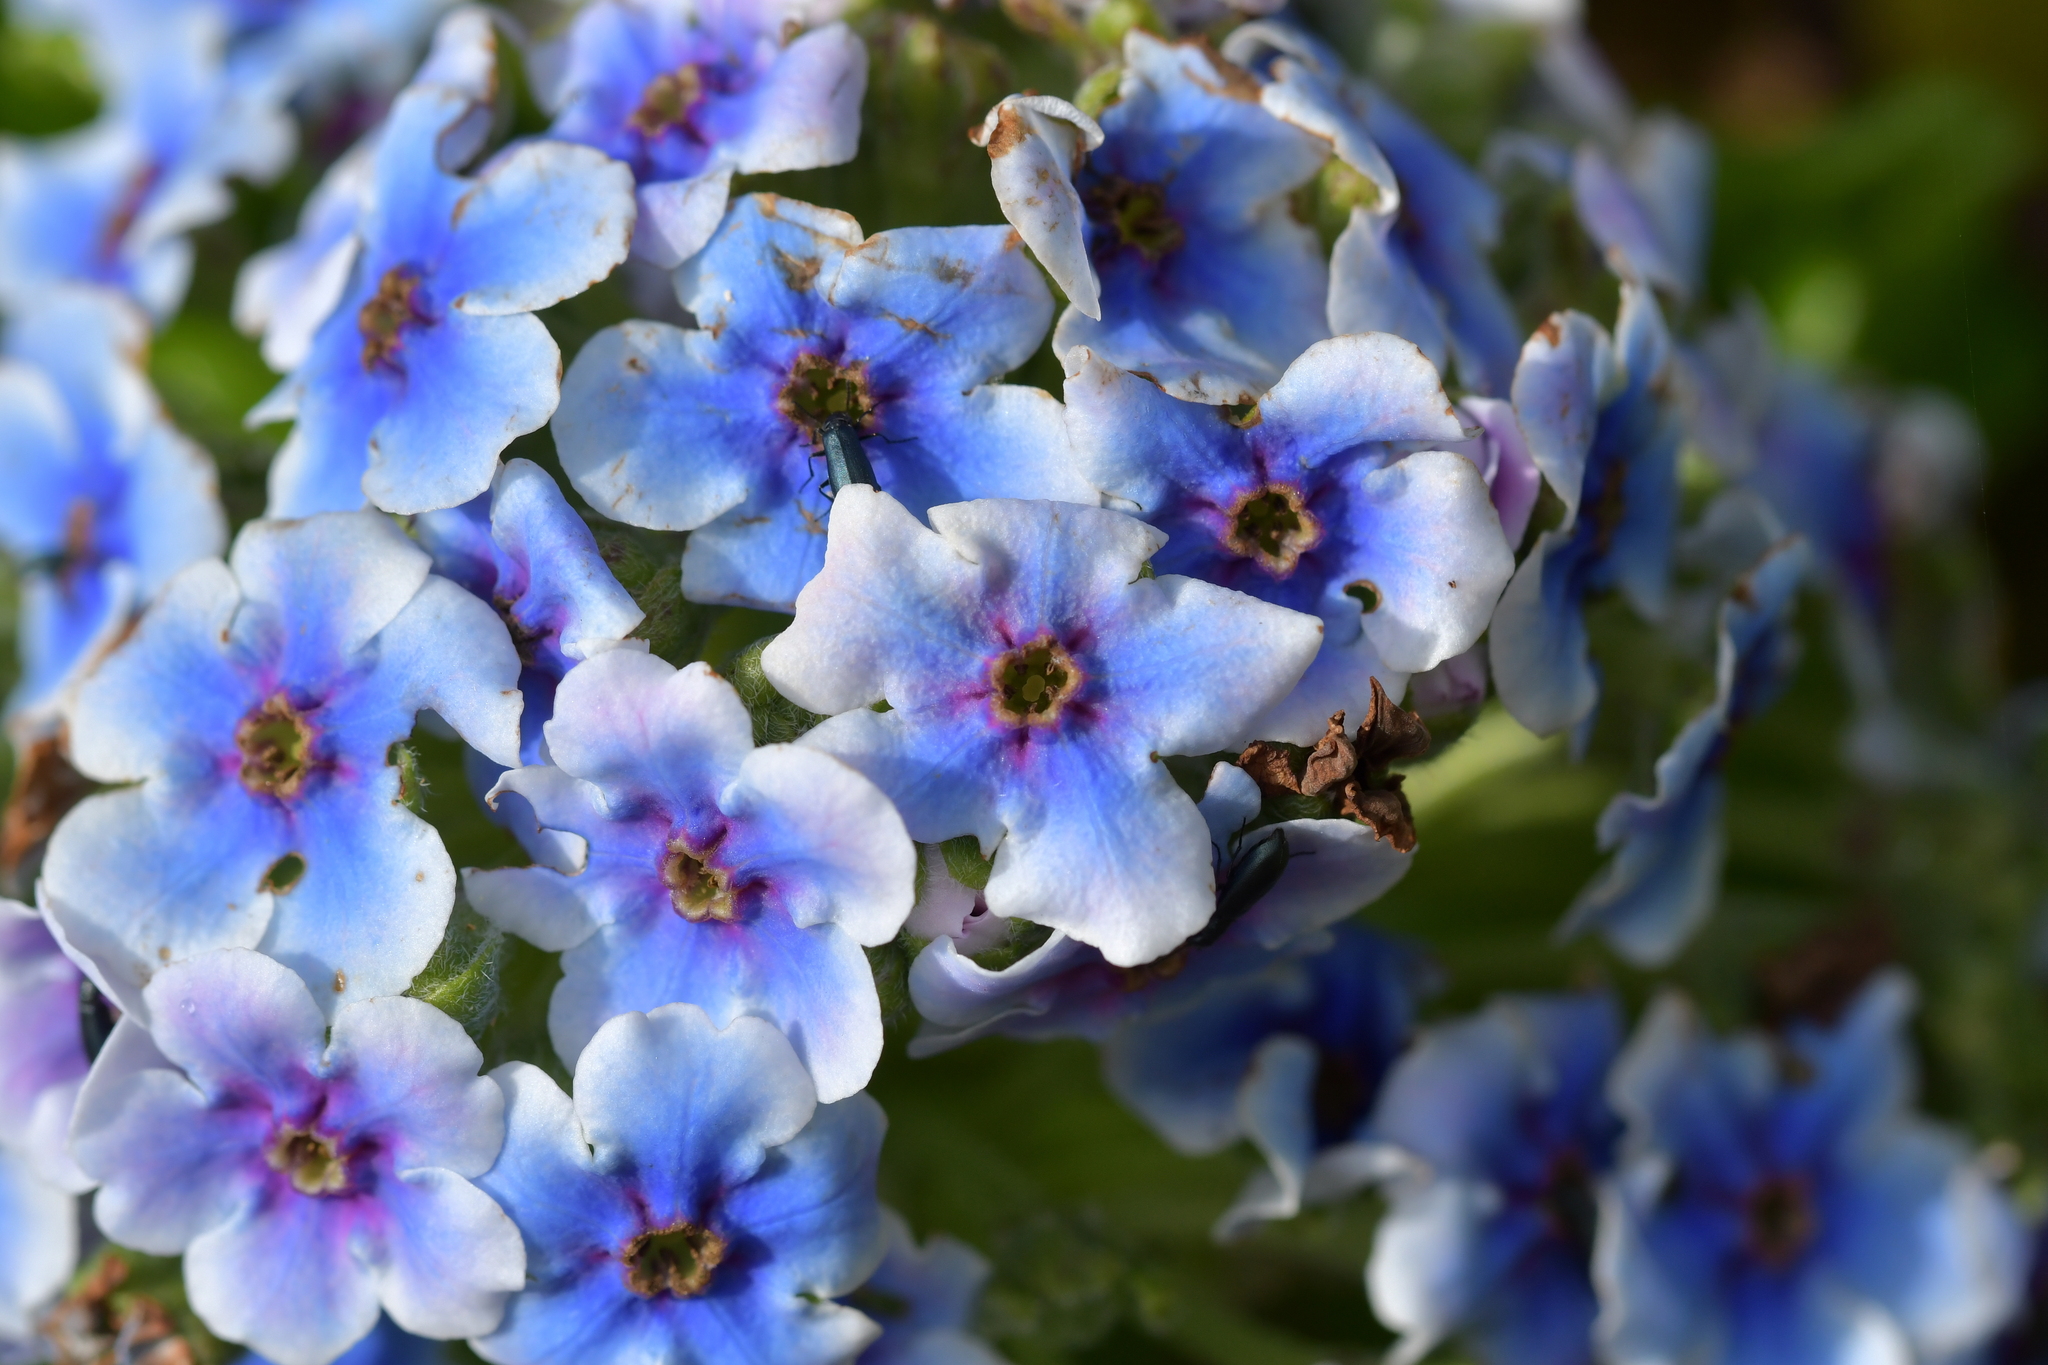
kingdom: Plantae
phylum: Tracheophyta
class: Magnoliopsida
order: Boraginales
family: Boraginaceae
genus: Myosotidium
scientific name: Myosotidium hortensia
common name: Giant forget-me-not
